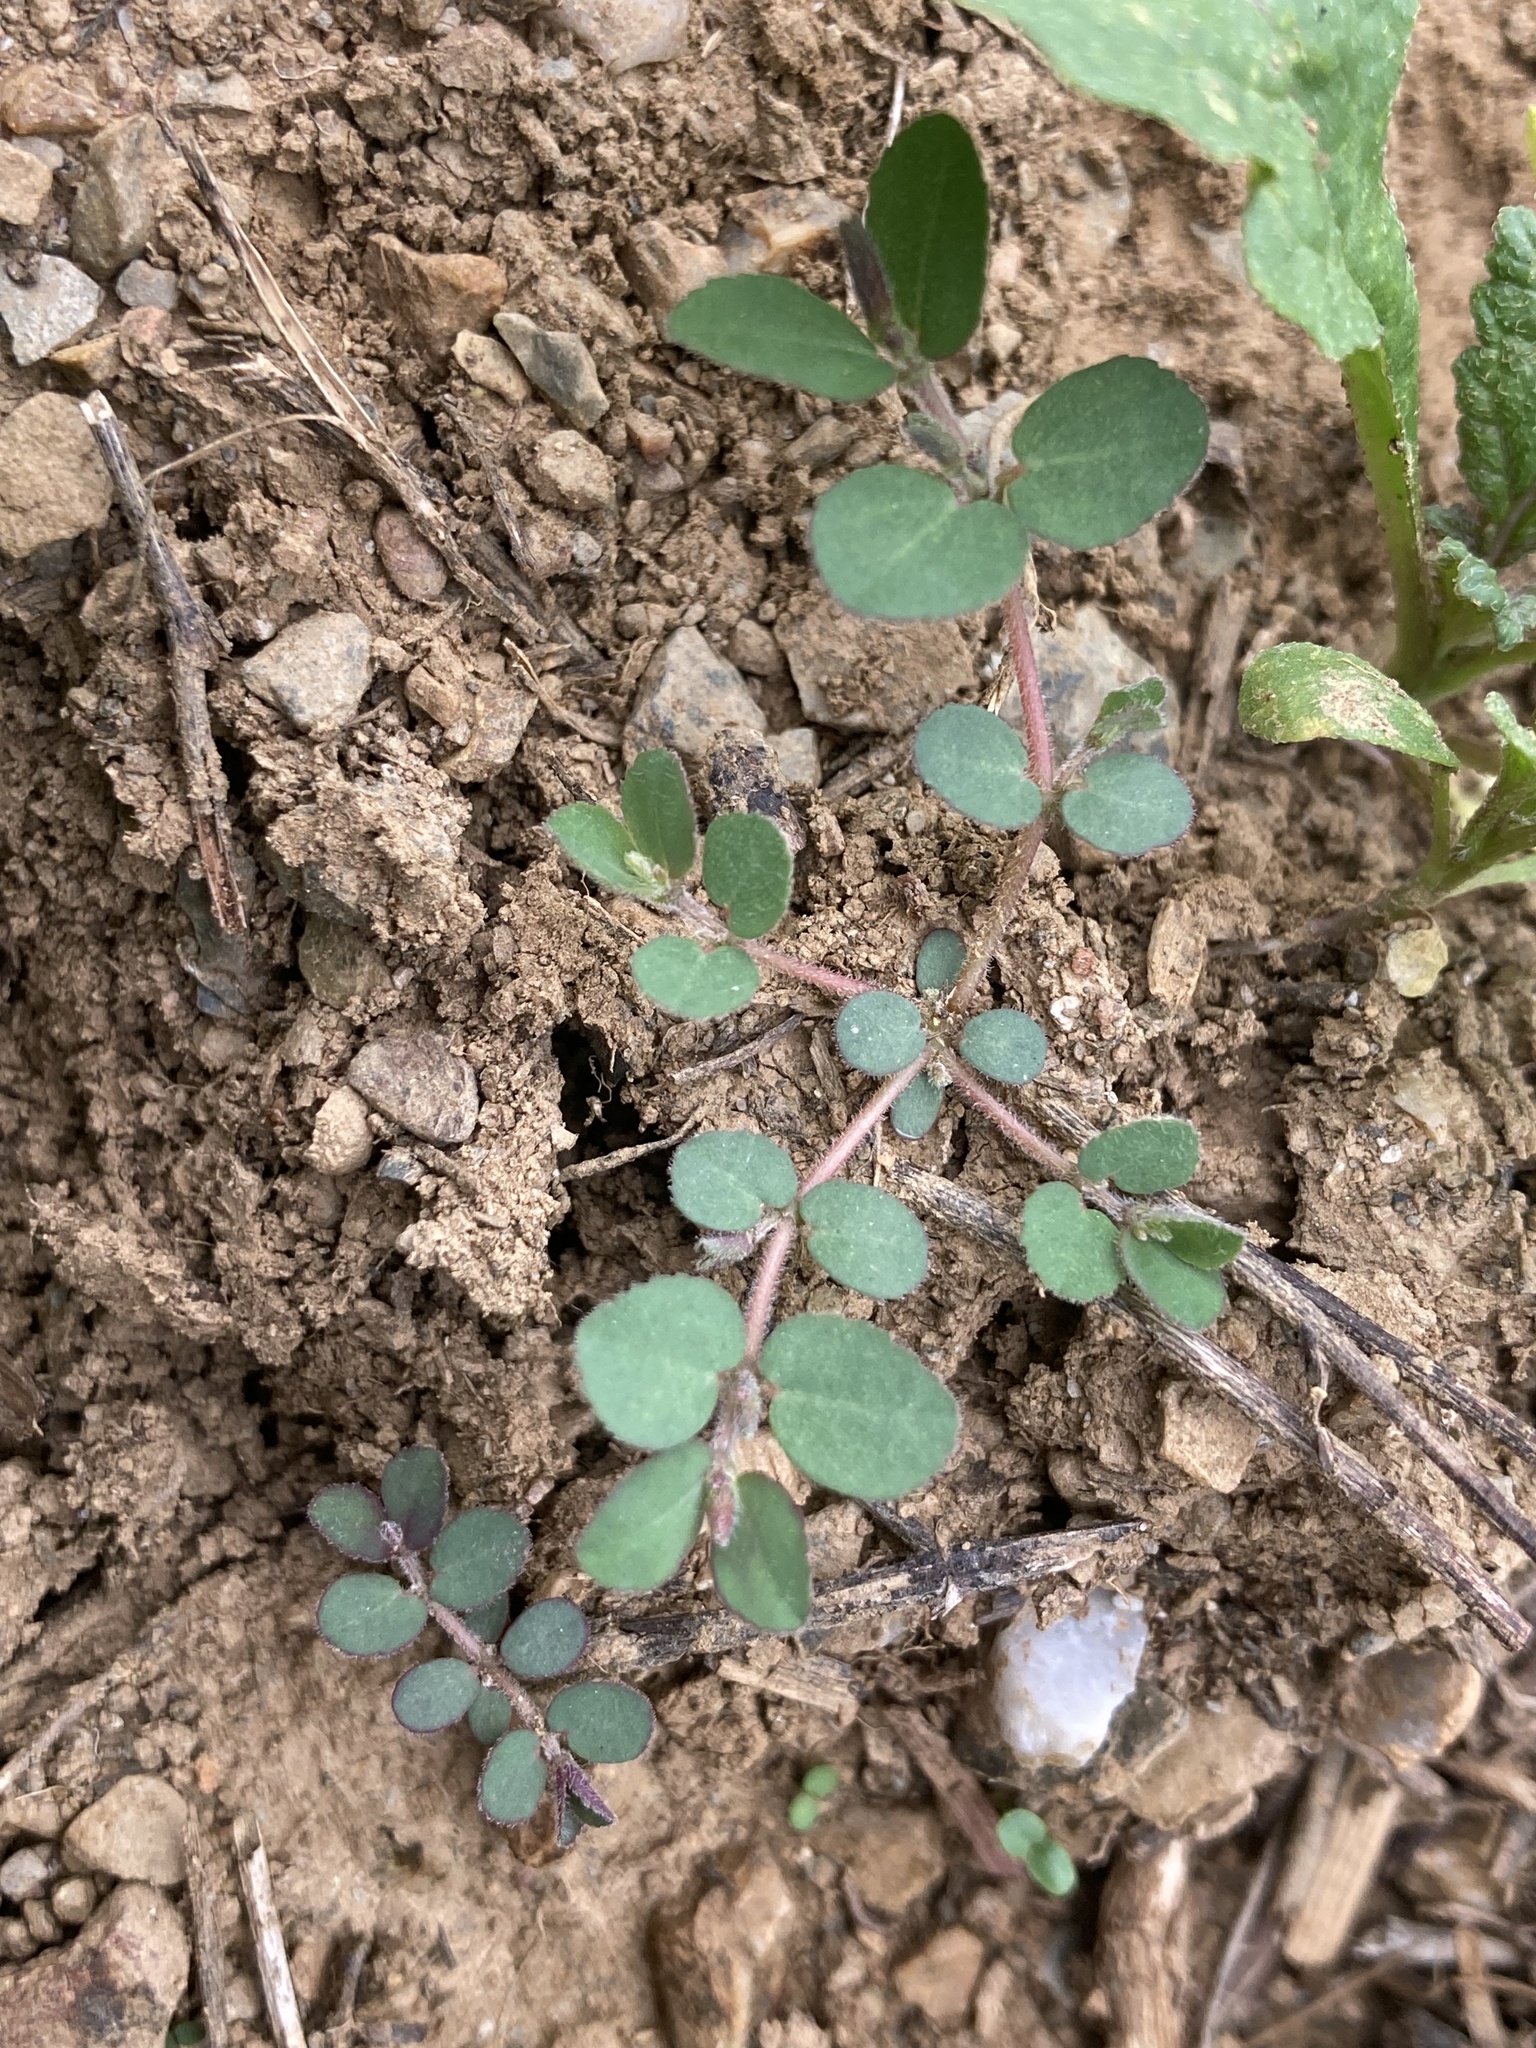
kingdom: Plantae
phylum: Tracheophyta
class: Magnoliopsida
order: Malpighiales
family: Euphorbiaceae
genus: Euphorbia
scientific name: Euphorbia prostrata
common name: Prostrate sandmat
